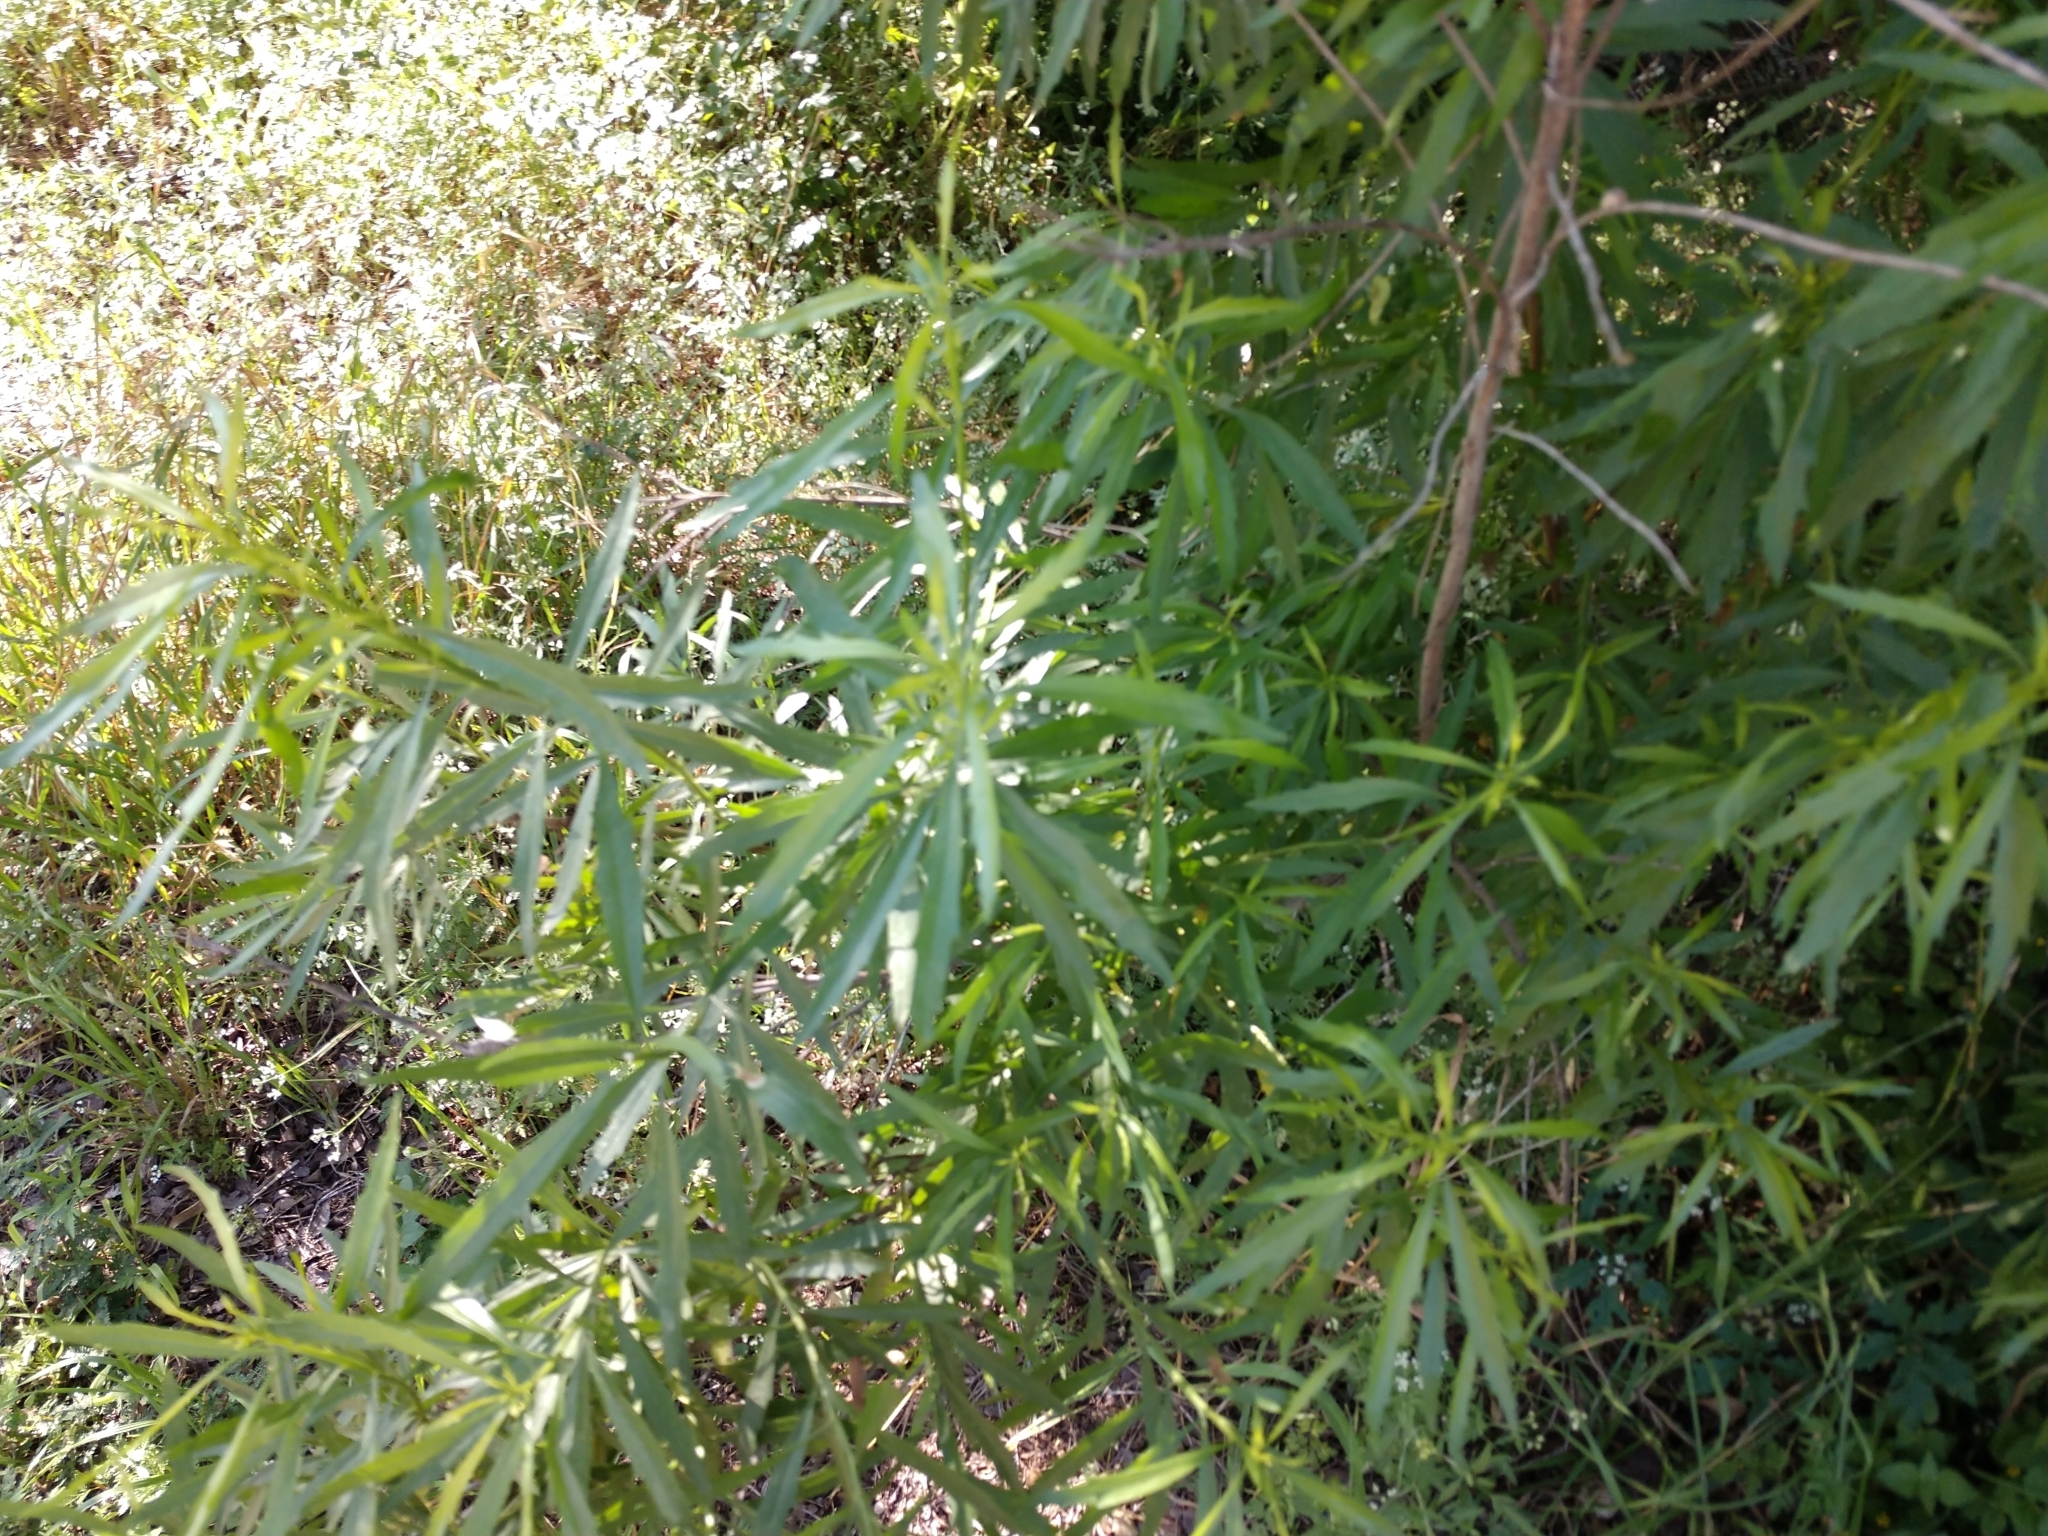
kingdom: Plantae
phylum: Tracheophyta
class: Magnoliopsida
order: Asterales
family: Asteraceae
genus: Baccharis
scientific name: Baccharis neglecta
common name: Roosevelt-weed
